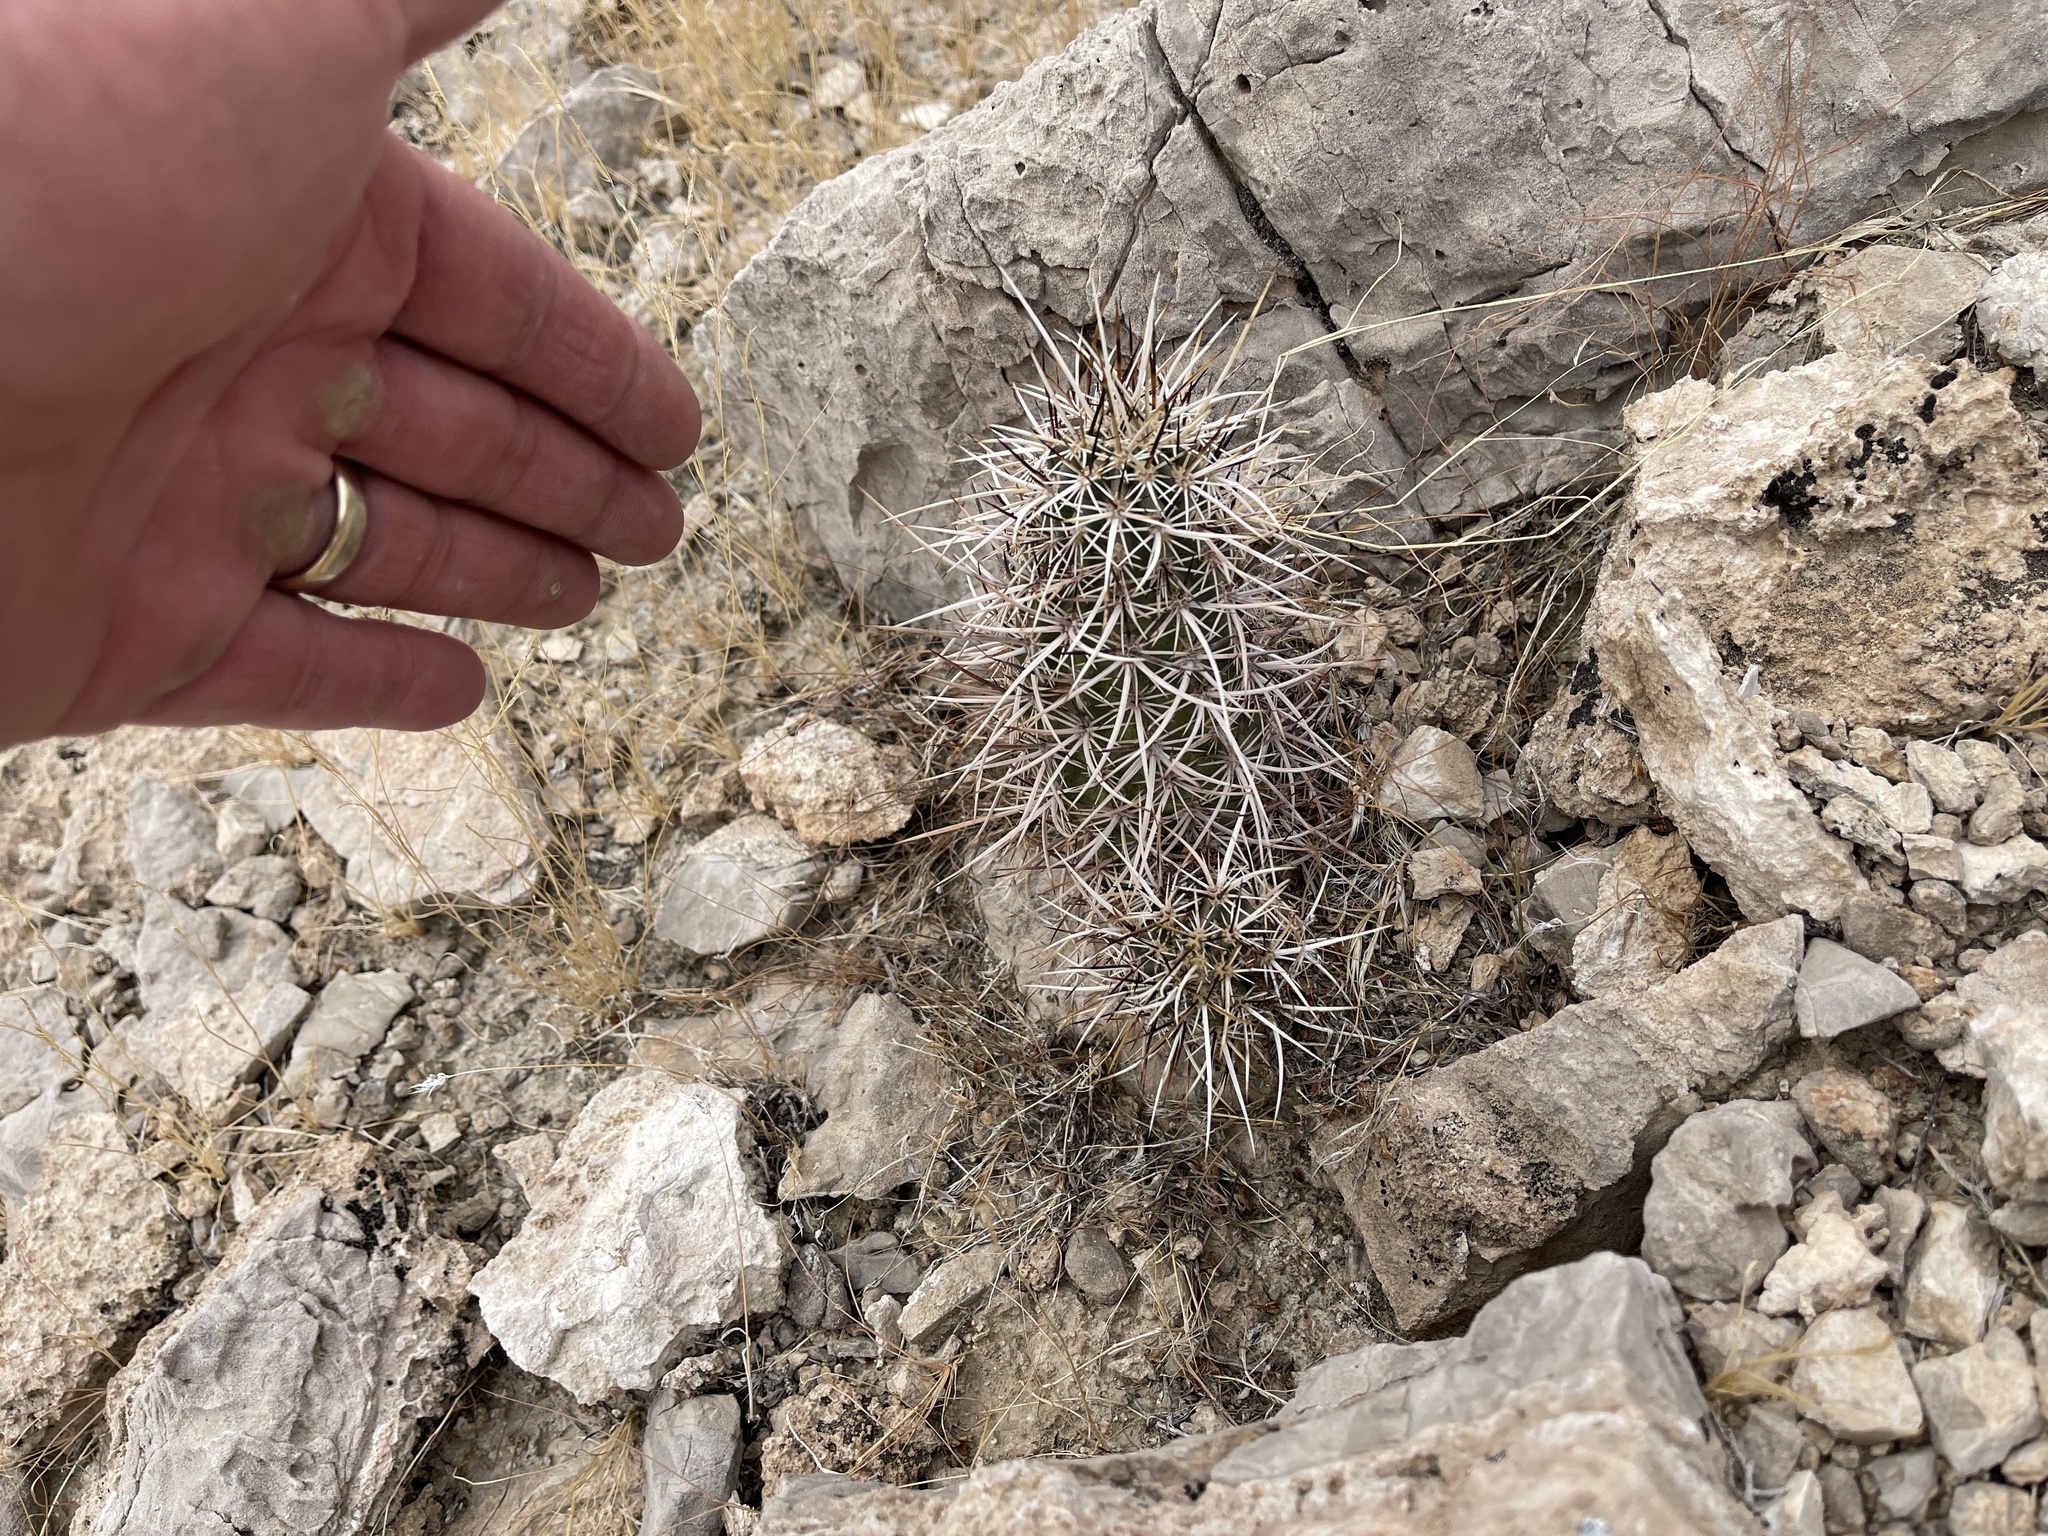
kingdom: Plantae
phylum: Tracheophyta
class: Magnoliopsida
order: Caryophyllales
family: Cactaceae
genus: Echinocereus
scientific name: Echinocereus engelmannii
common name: Engelmann's hedgehog cactus
